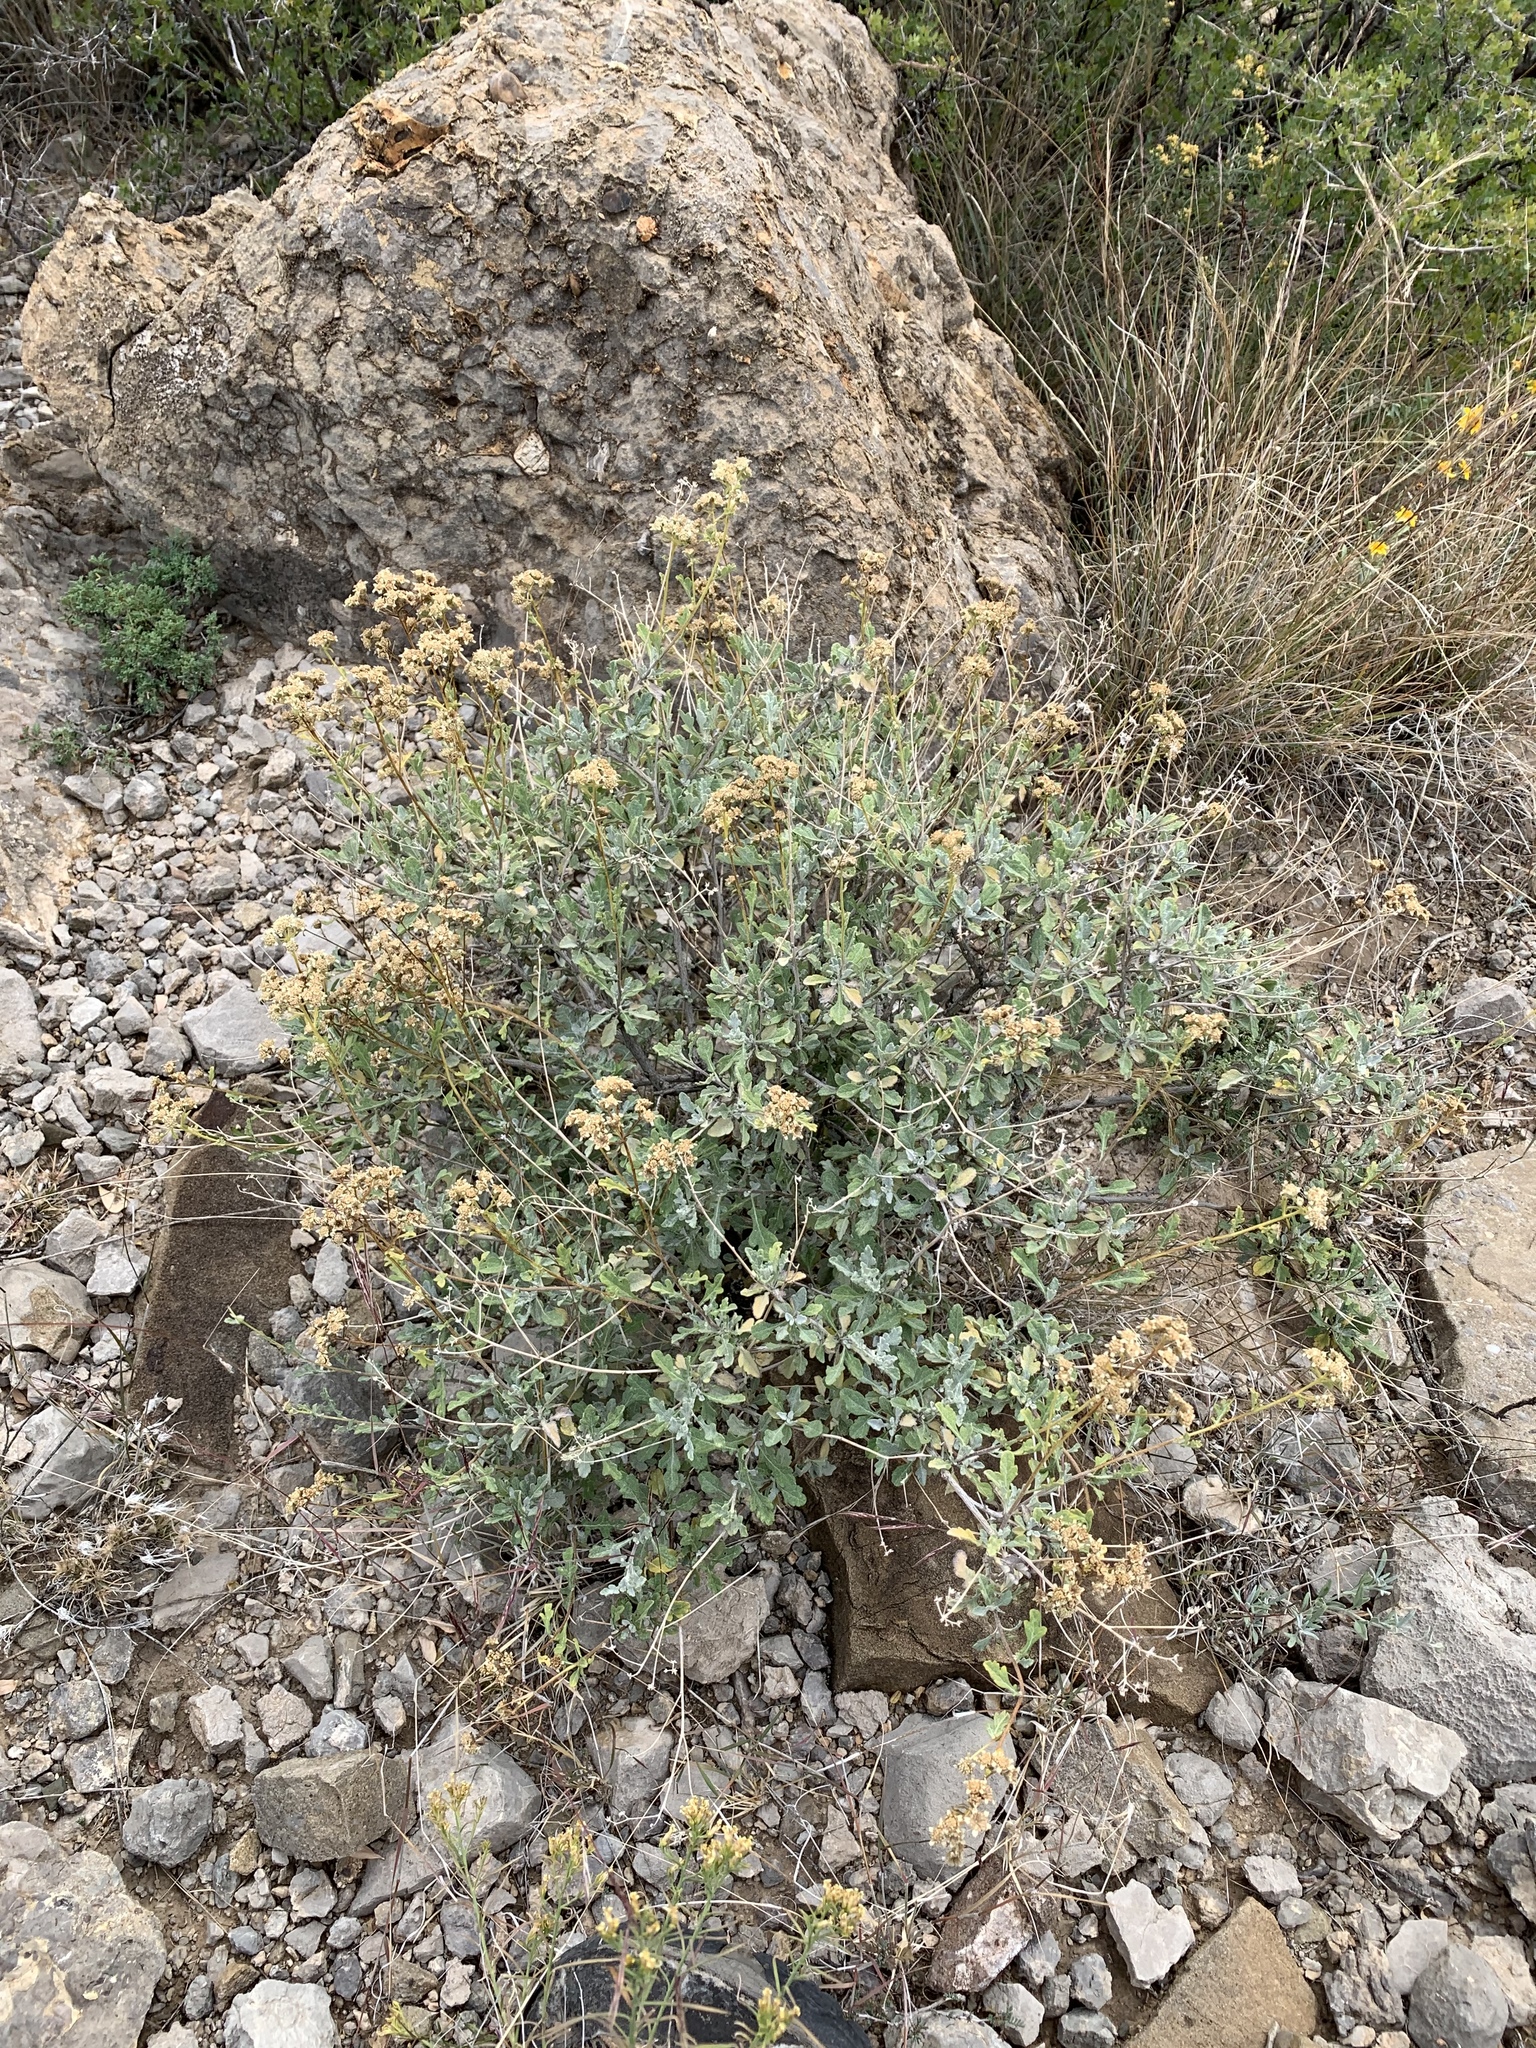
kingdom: Plantae
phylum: Tracheophyta
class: Magnoliopsida
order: Asterales
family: Asteraceae
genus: Parthenium
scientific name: Parthenium incanum
